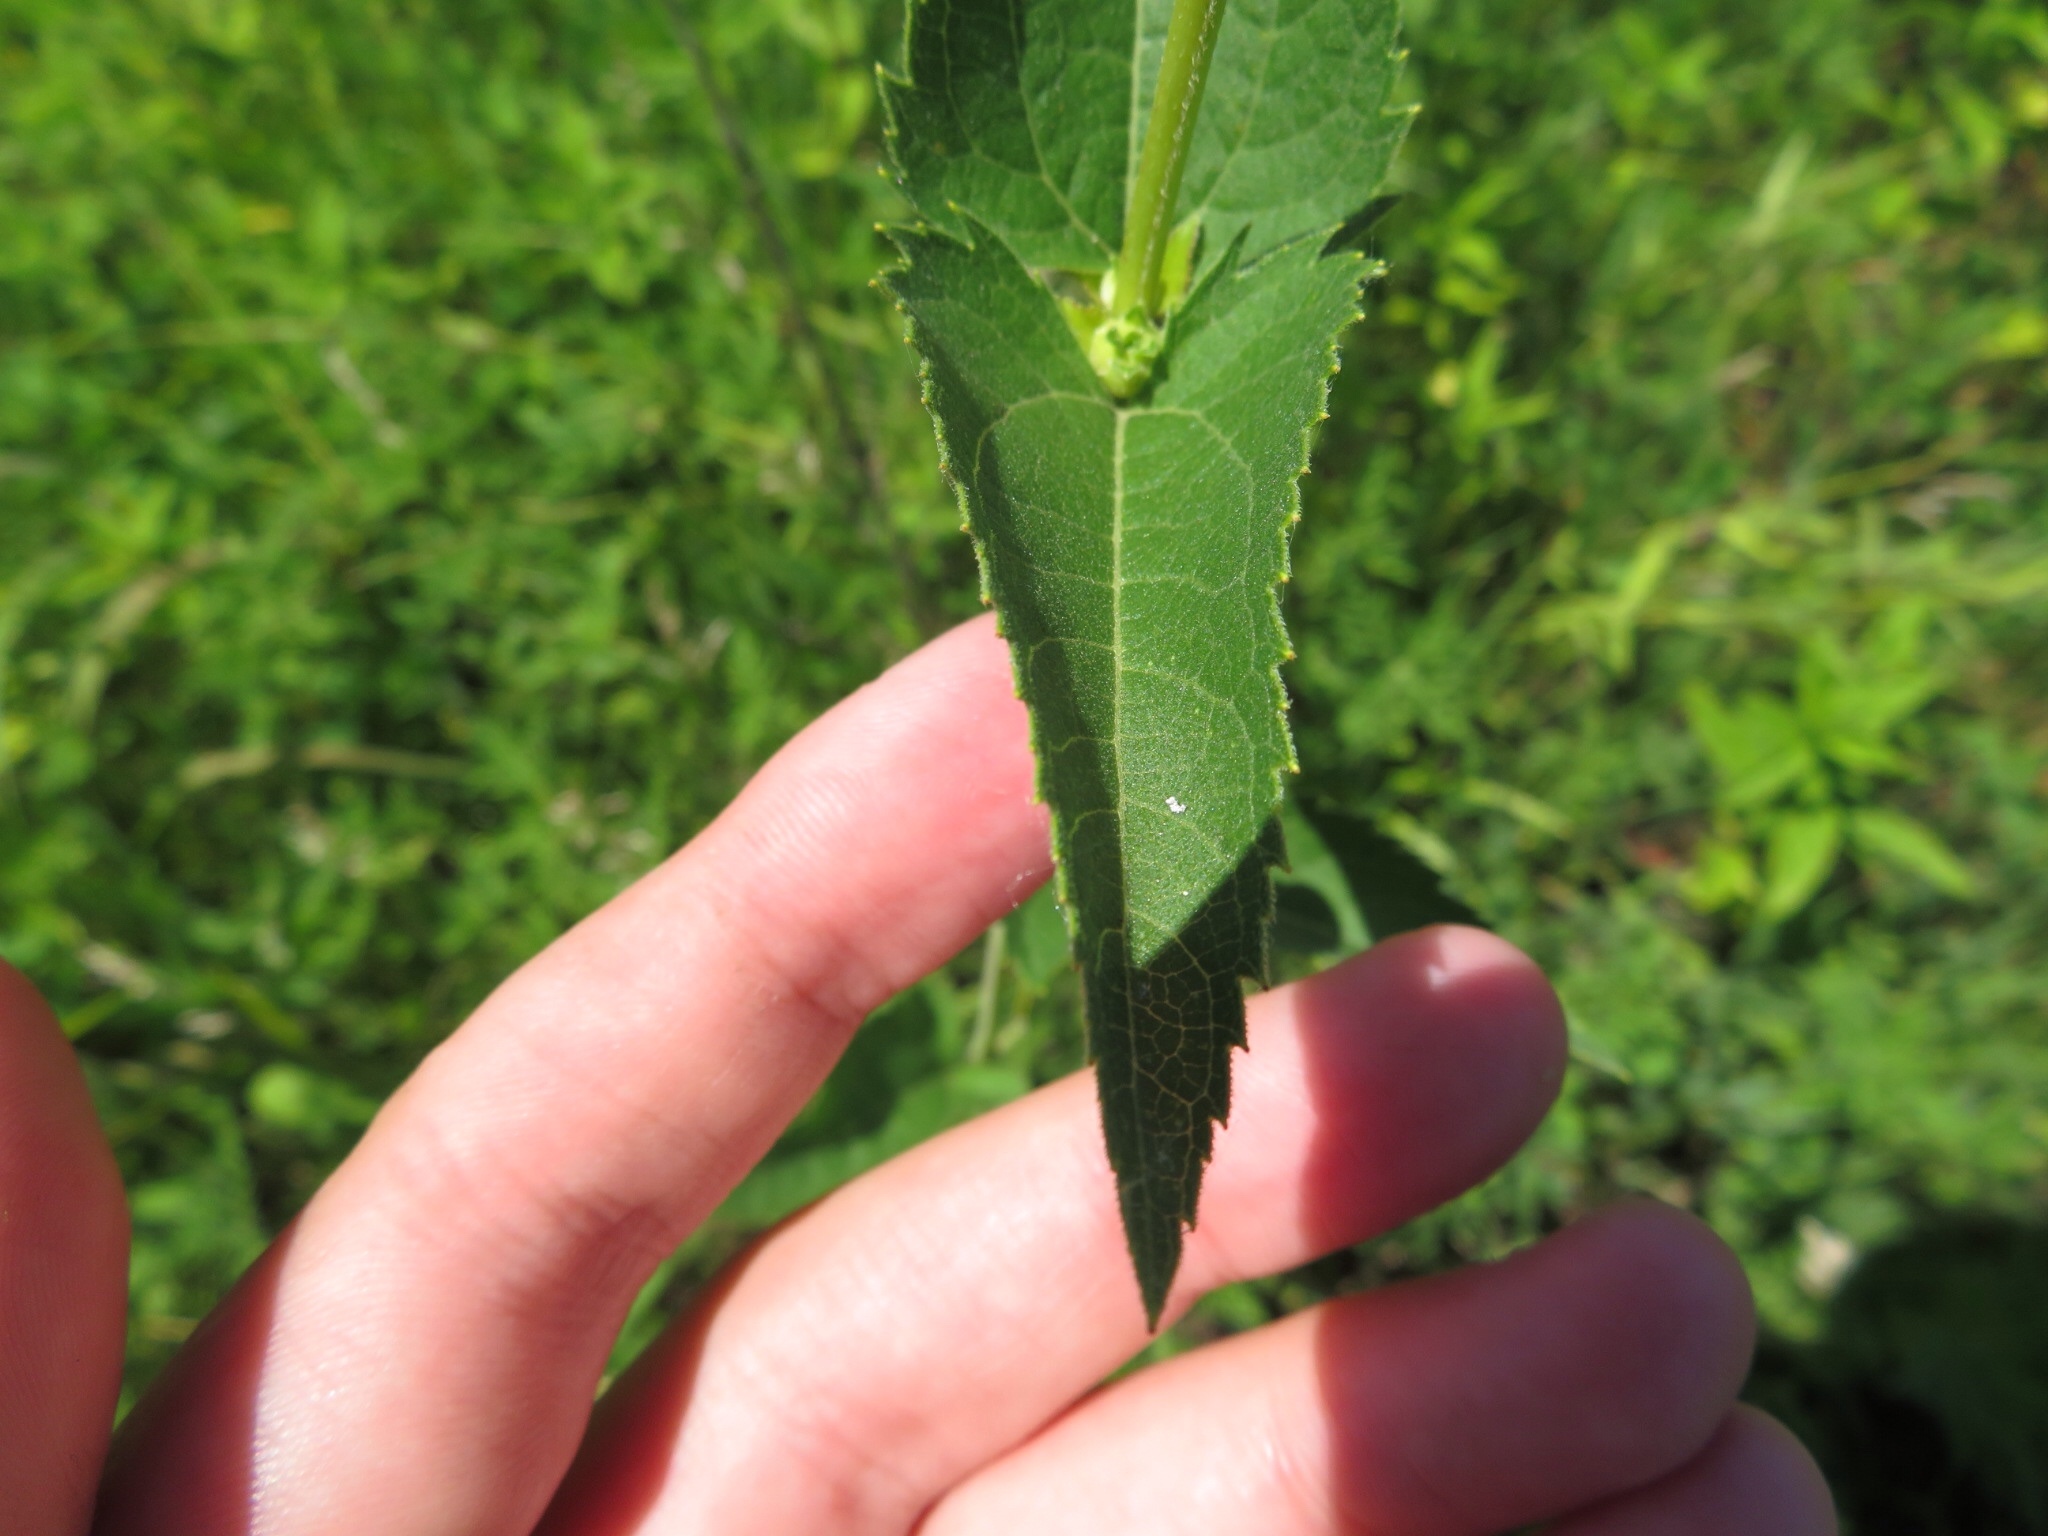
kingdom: Plantae
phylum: Tracheophyta
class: Magnoliopsida
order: Asterales
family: Asteraceae
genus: Heliopsis
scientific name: Heliopsis helianthoides
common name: False sunflower
